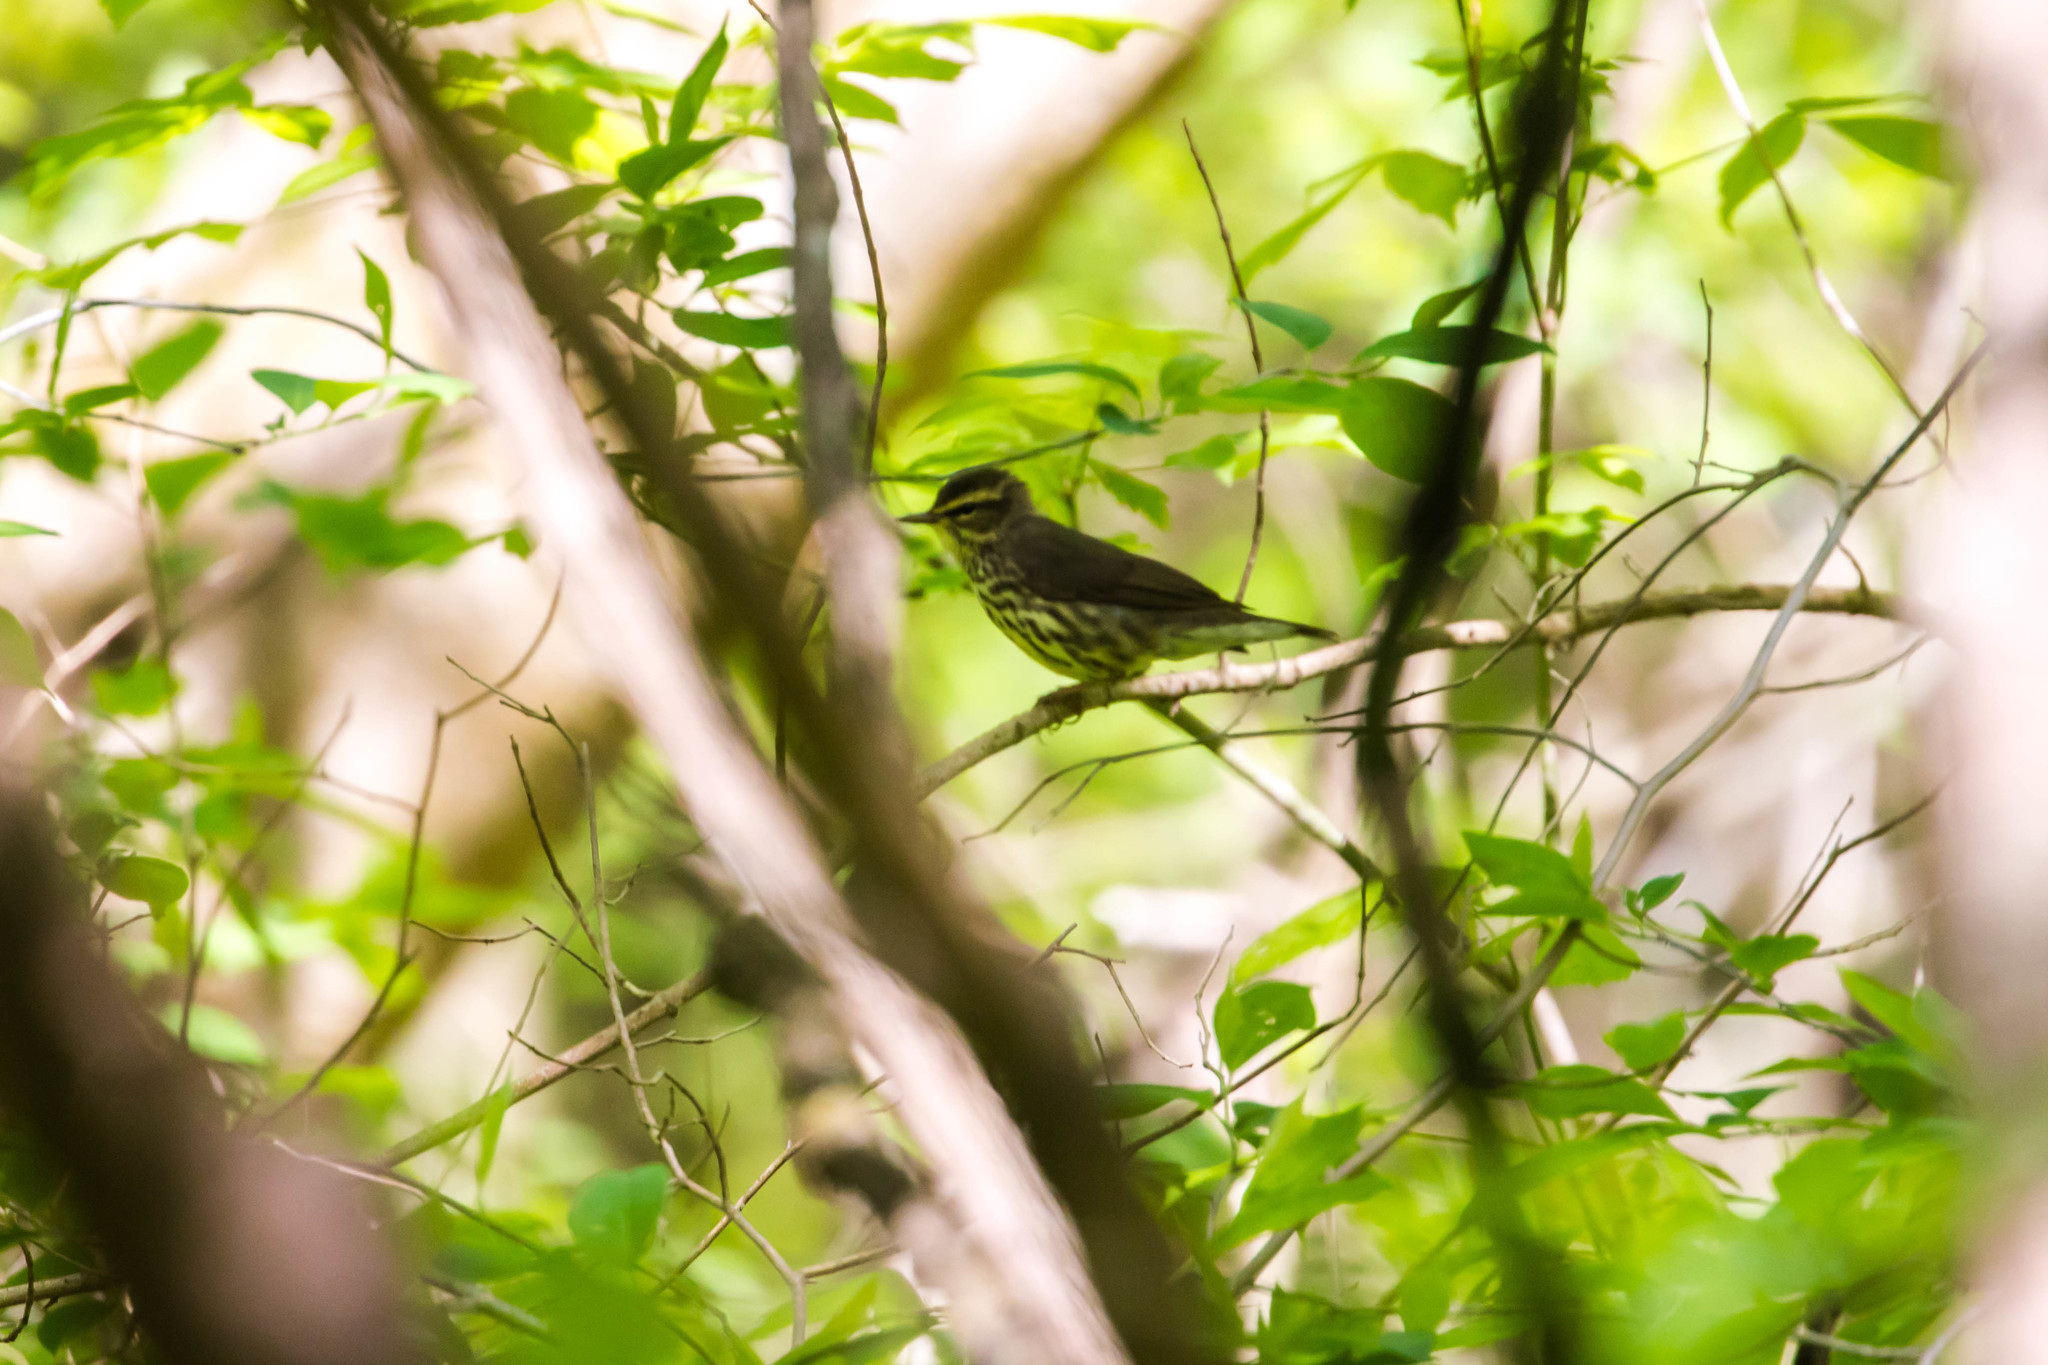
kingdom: Animalia
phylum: Chordata
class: Aves
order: Passeriformes
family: Parulidae
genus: Parkesia
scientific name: Parkesia motacilla
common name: Louisiana waterthrush
